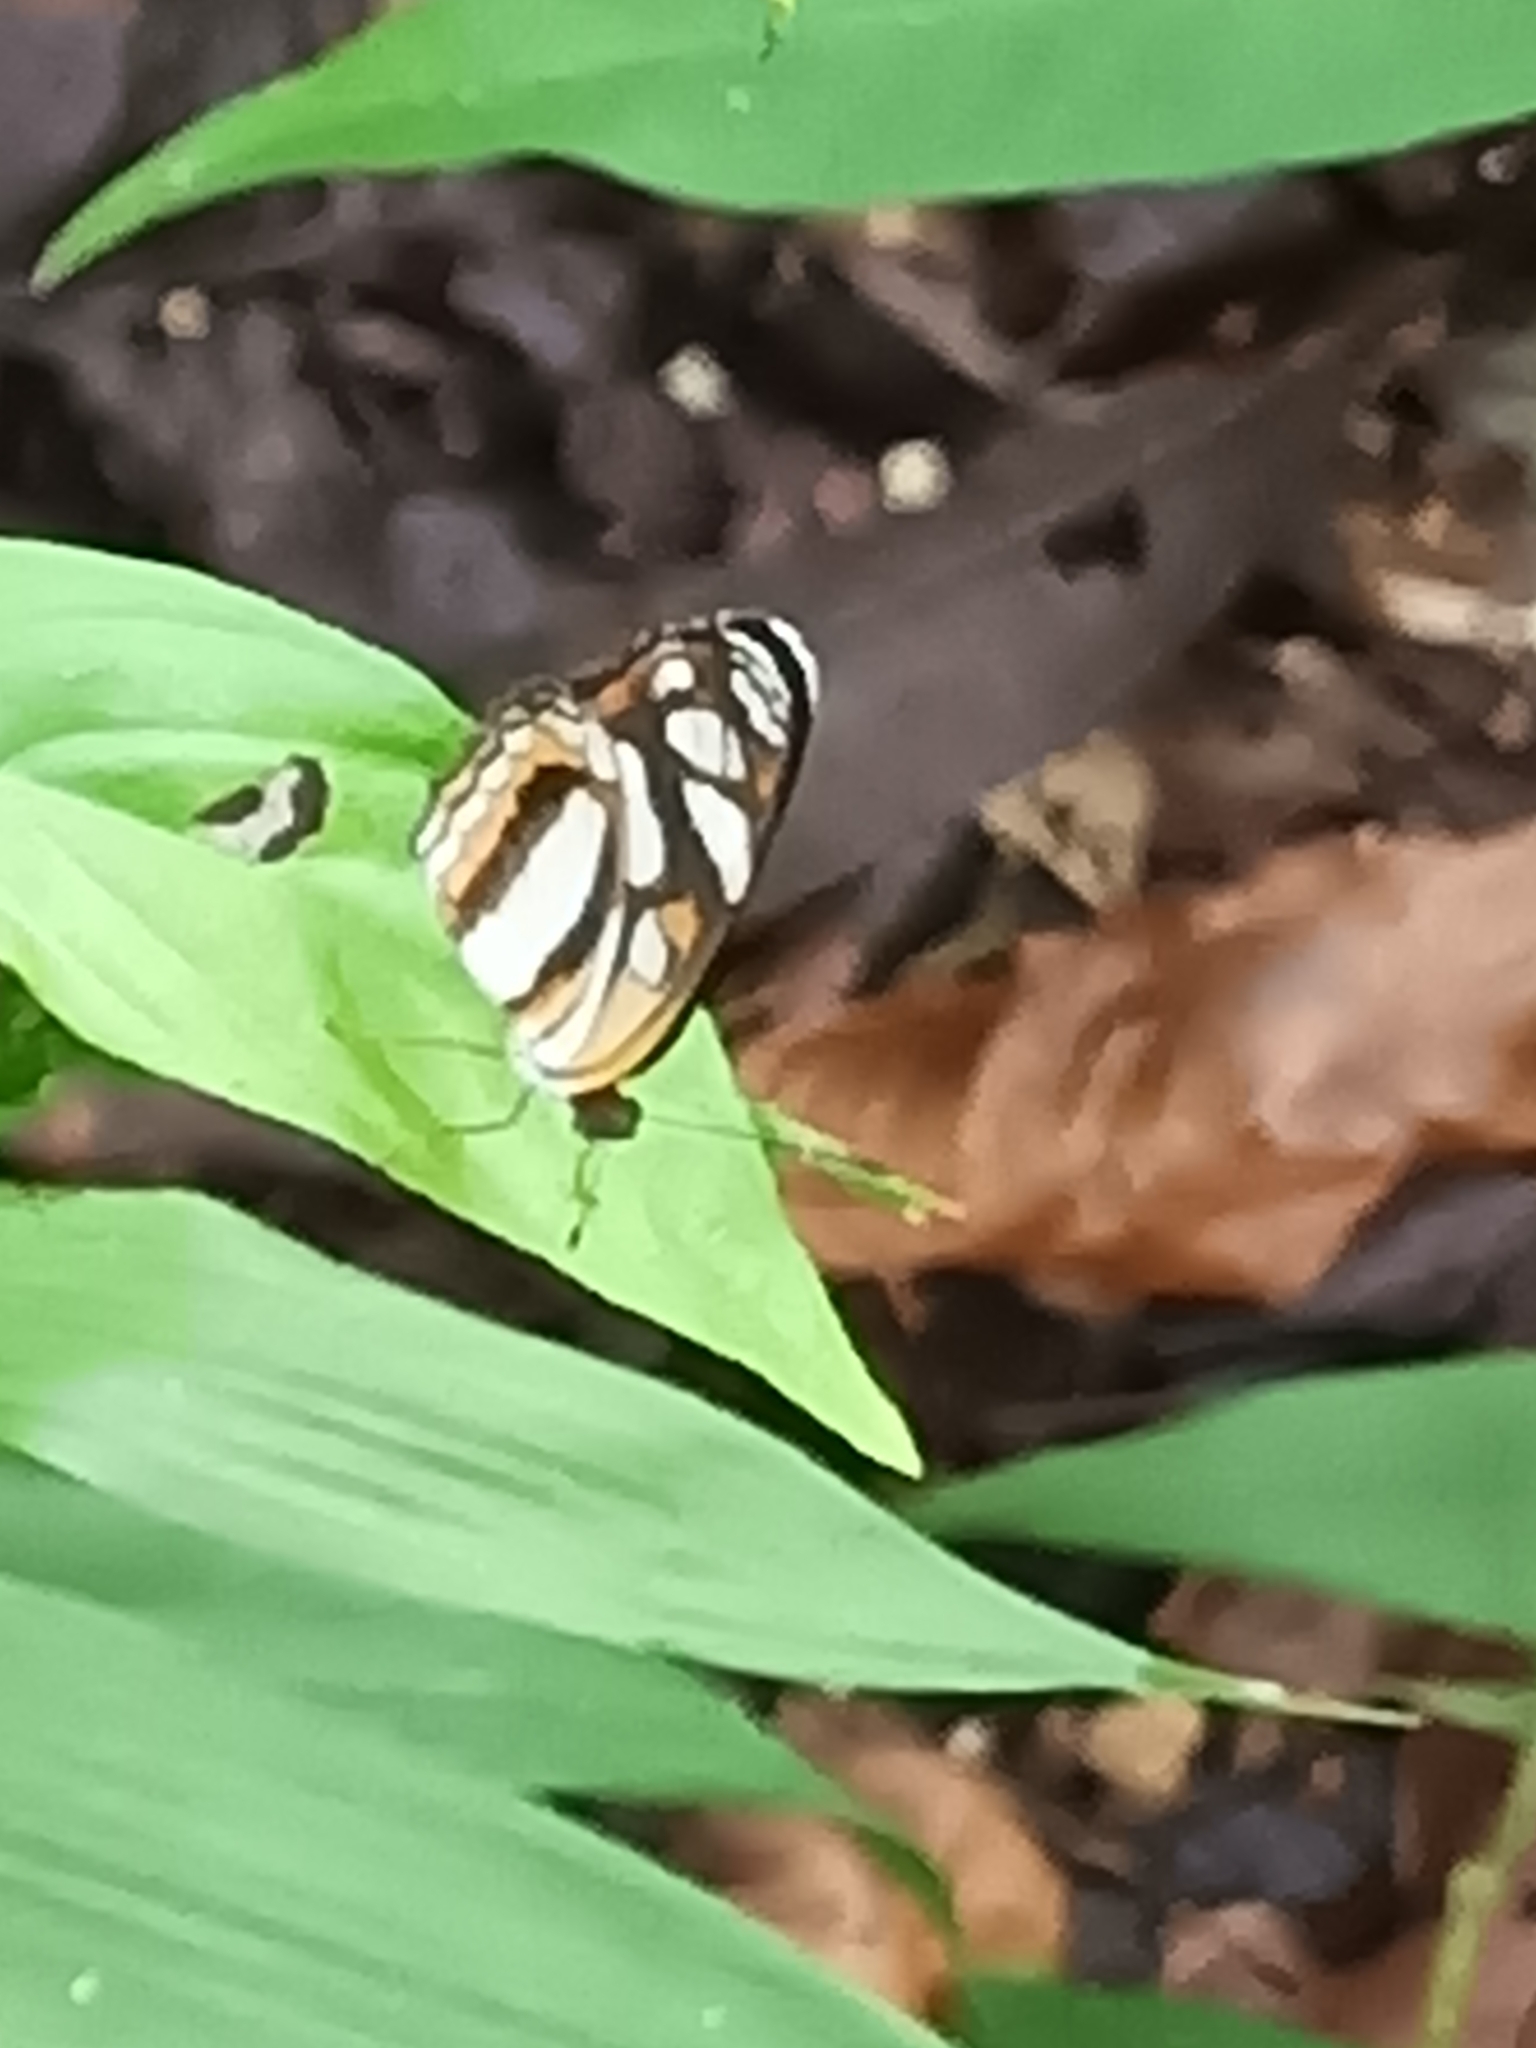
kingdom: Animalia
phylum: Arthropoda
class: Insecta
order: Lepidoptera
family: Nymphalidae
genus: Eresia
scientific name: Eresia nauplius
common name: Nauplius crescent
